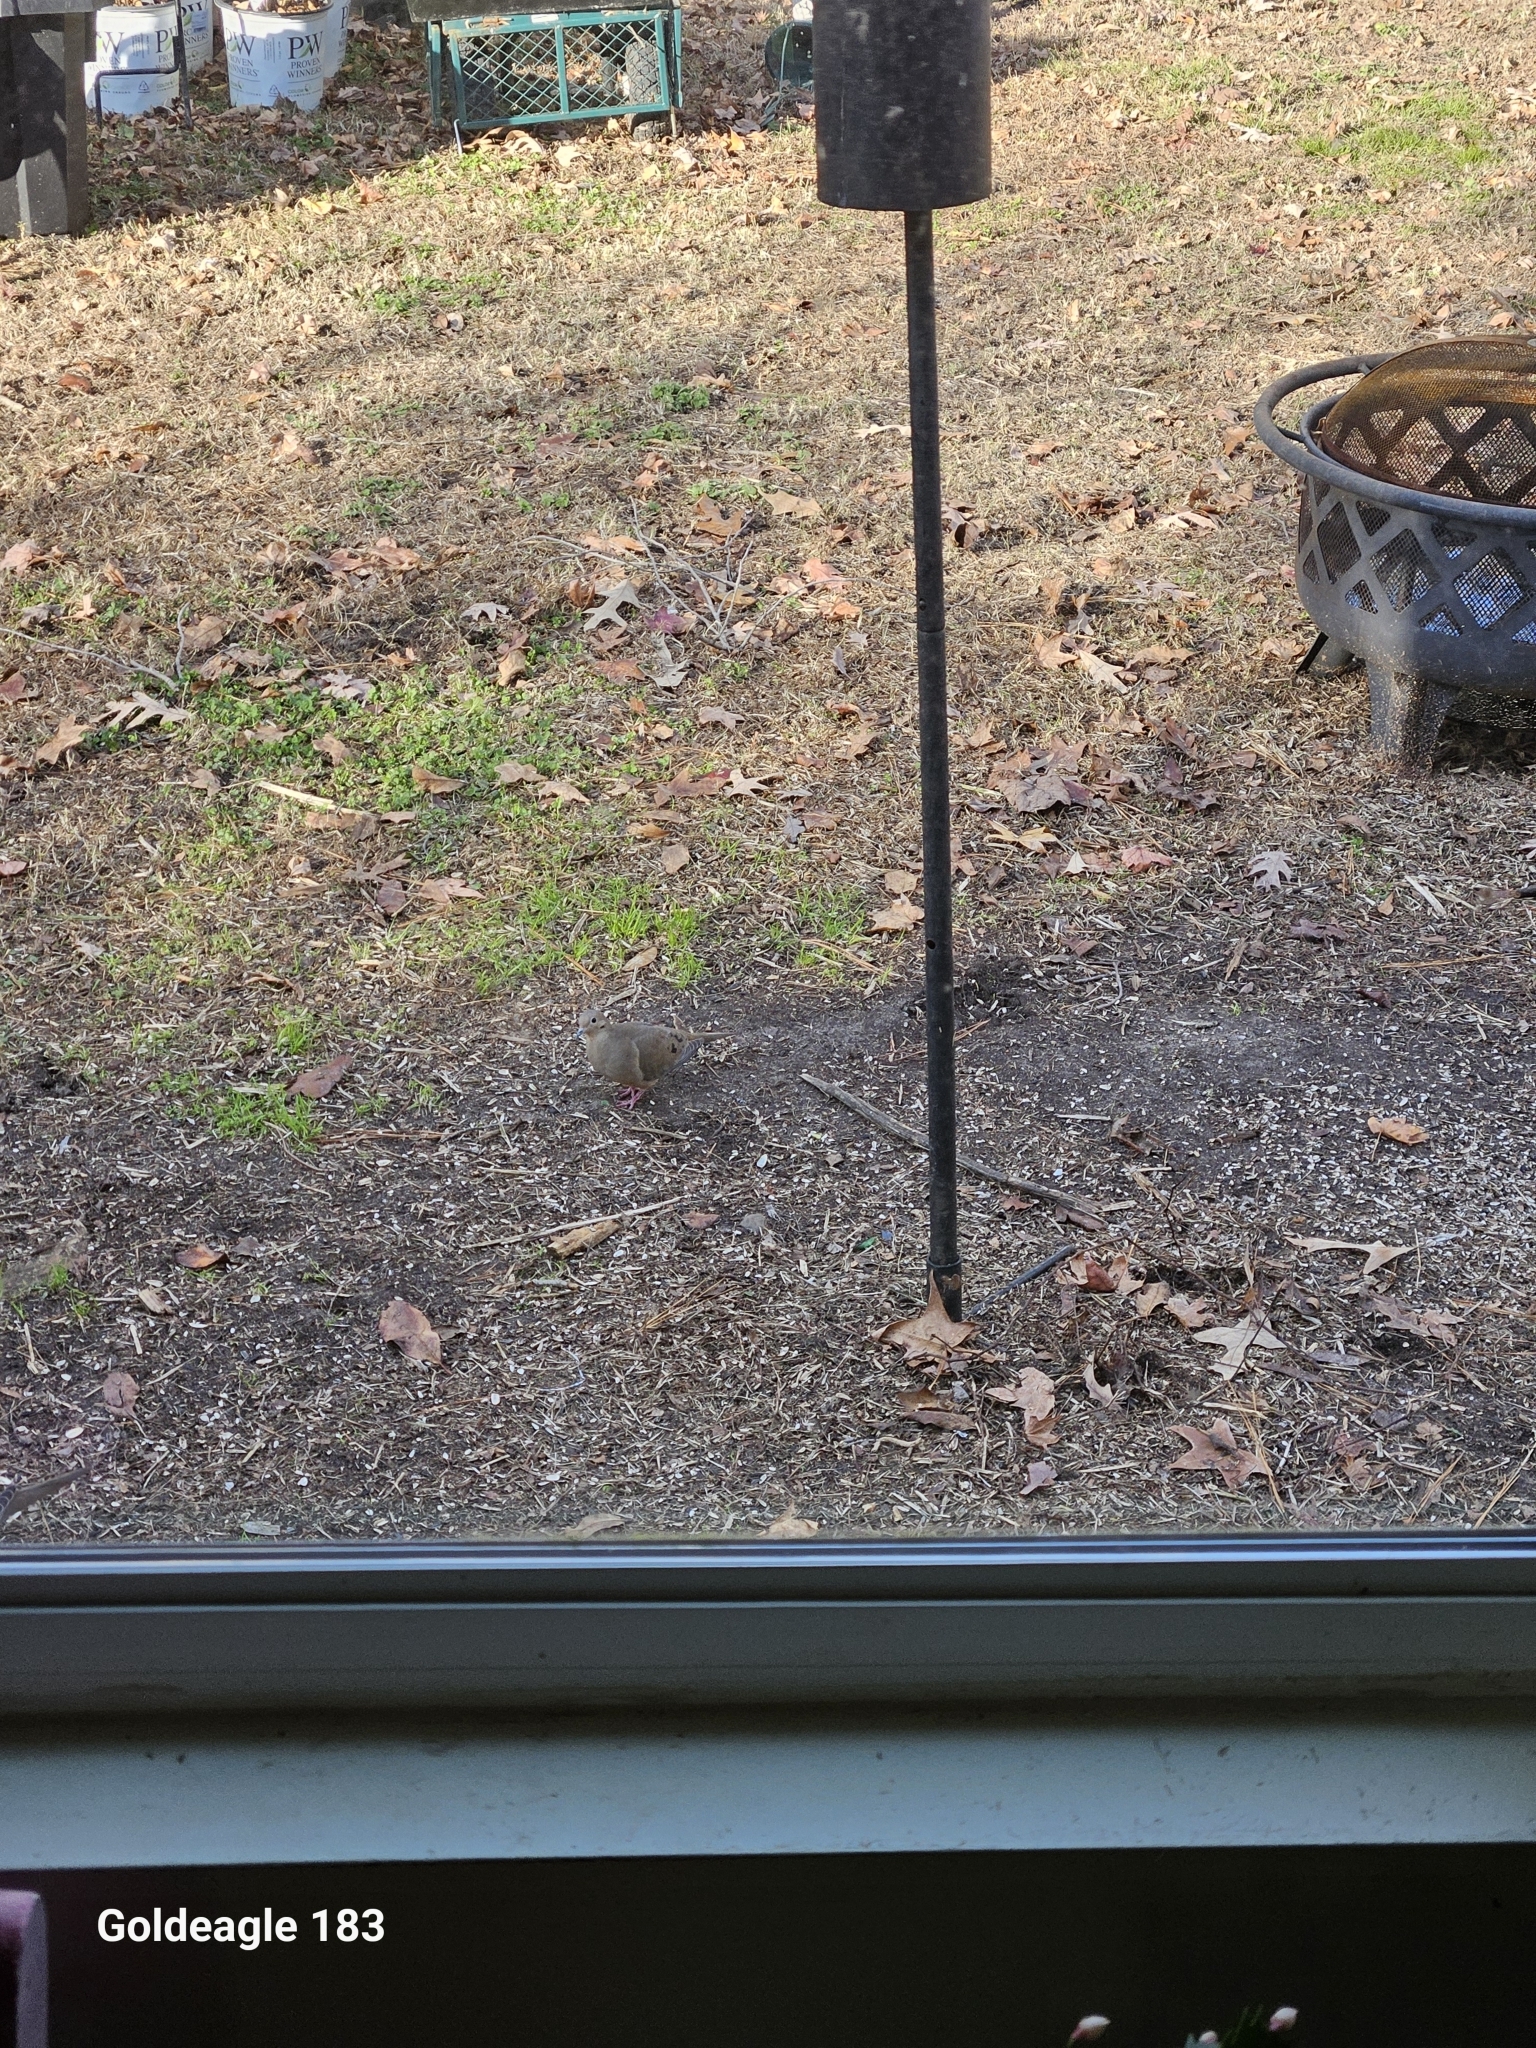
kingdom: Animalia
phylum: Chordata
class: Aves
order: Columbiformes
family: Columbidae
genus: Zenaida
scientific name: Zenaida macroura
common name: Mourning dove
